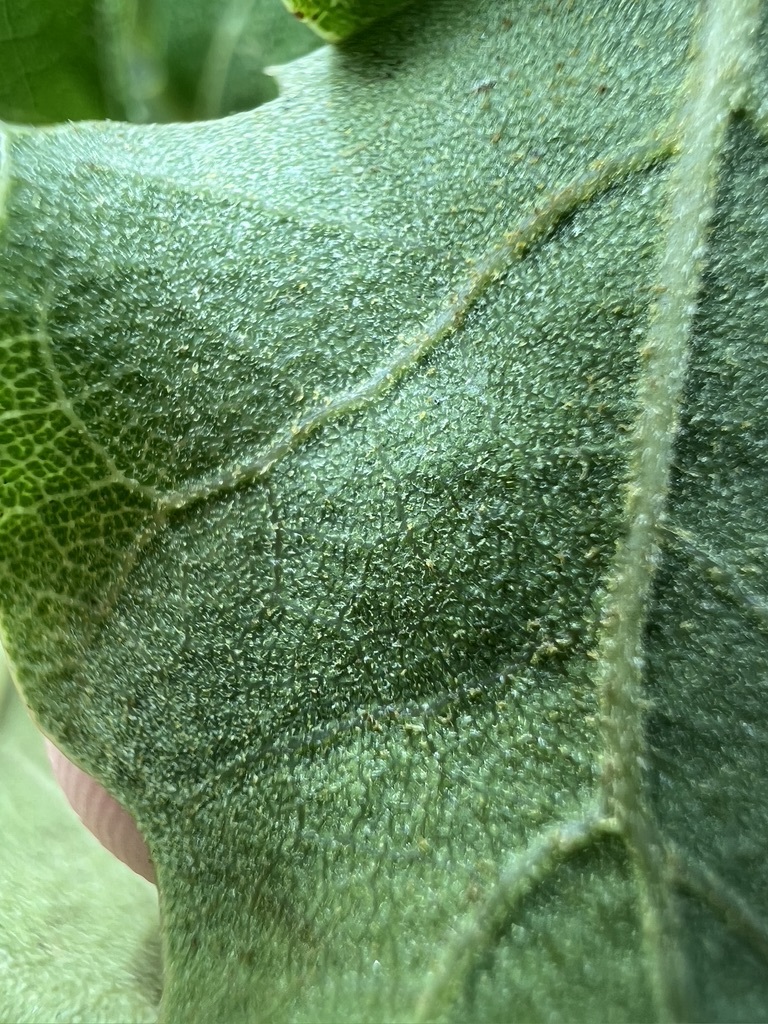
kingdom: Plantae
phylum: Tracheophyta
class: Magnoliopsida
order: Fagales
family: Fagaceae
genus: Quercus
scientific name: Quercus berberidifolia
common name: California scrub oak
